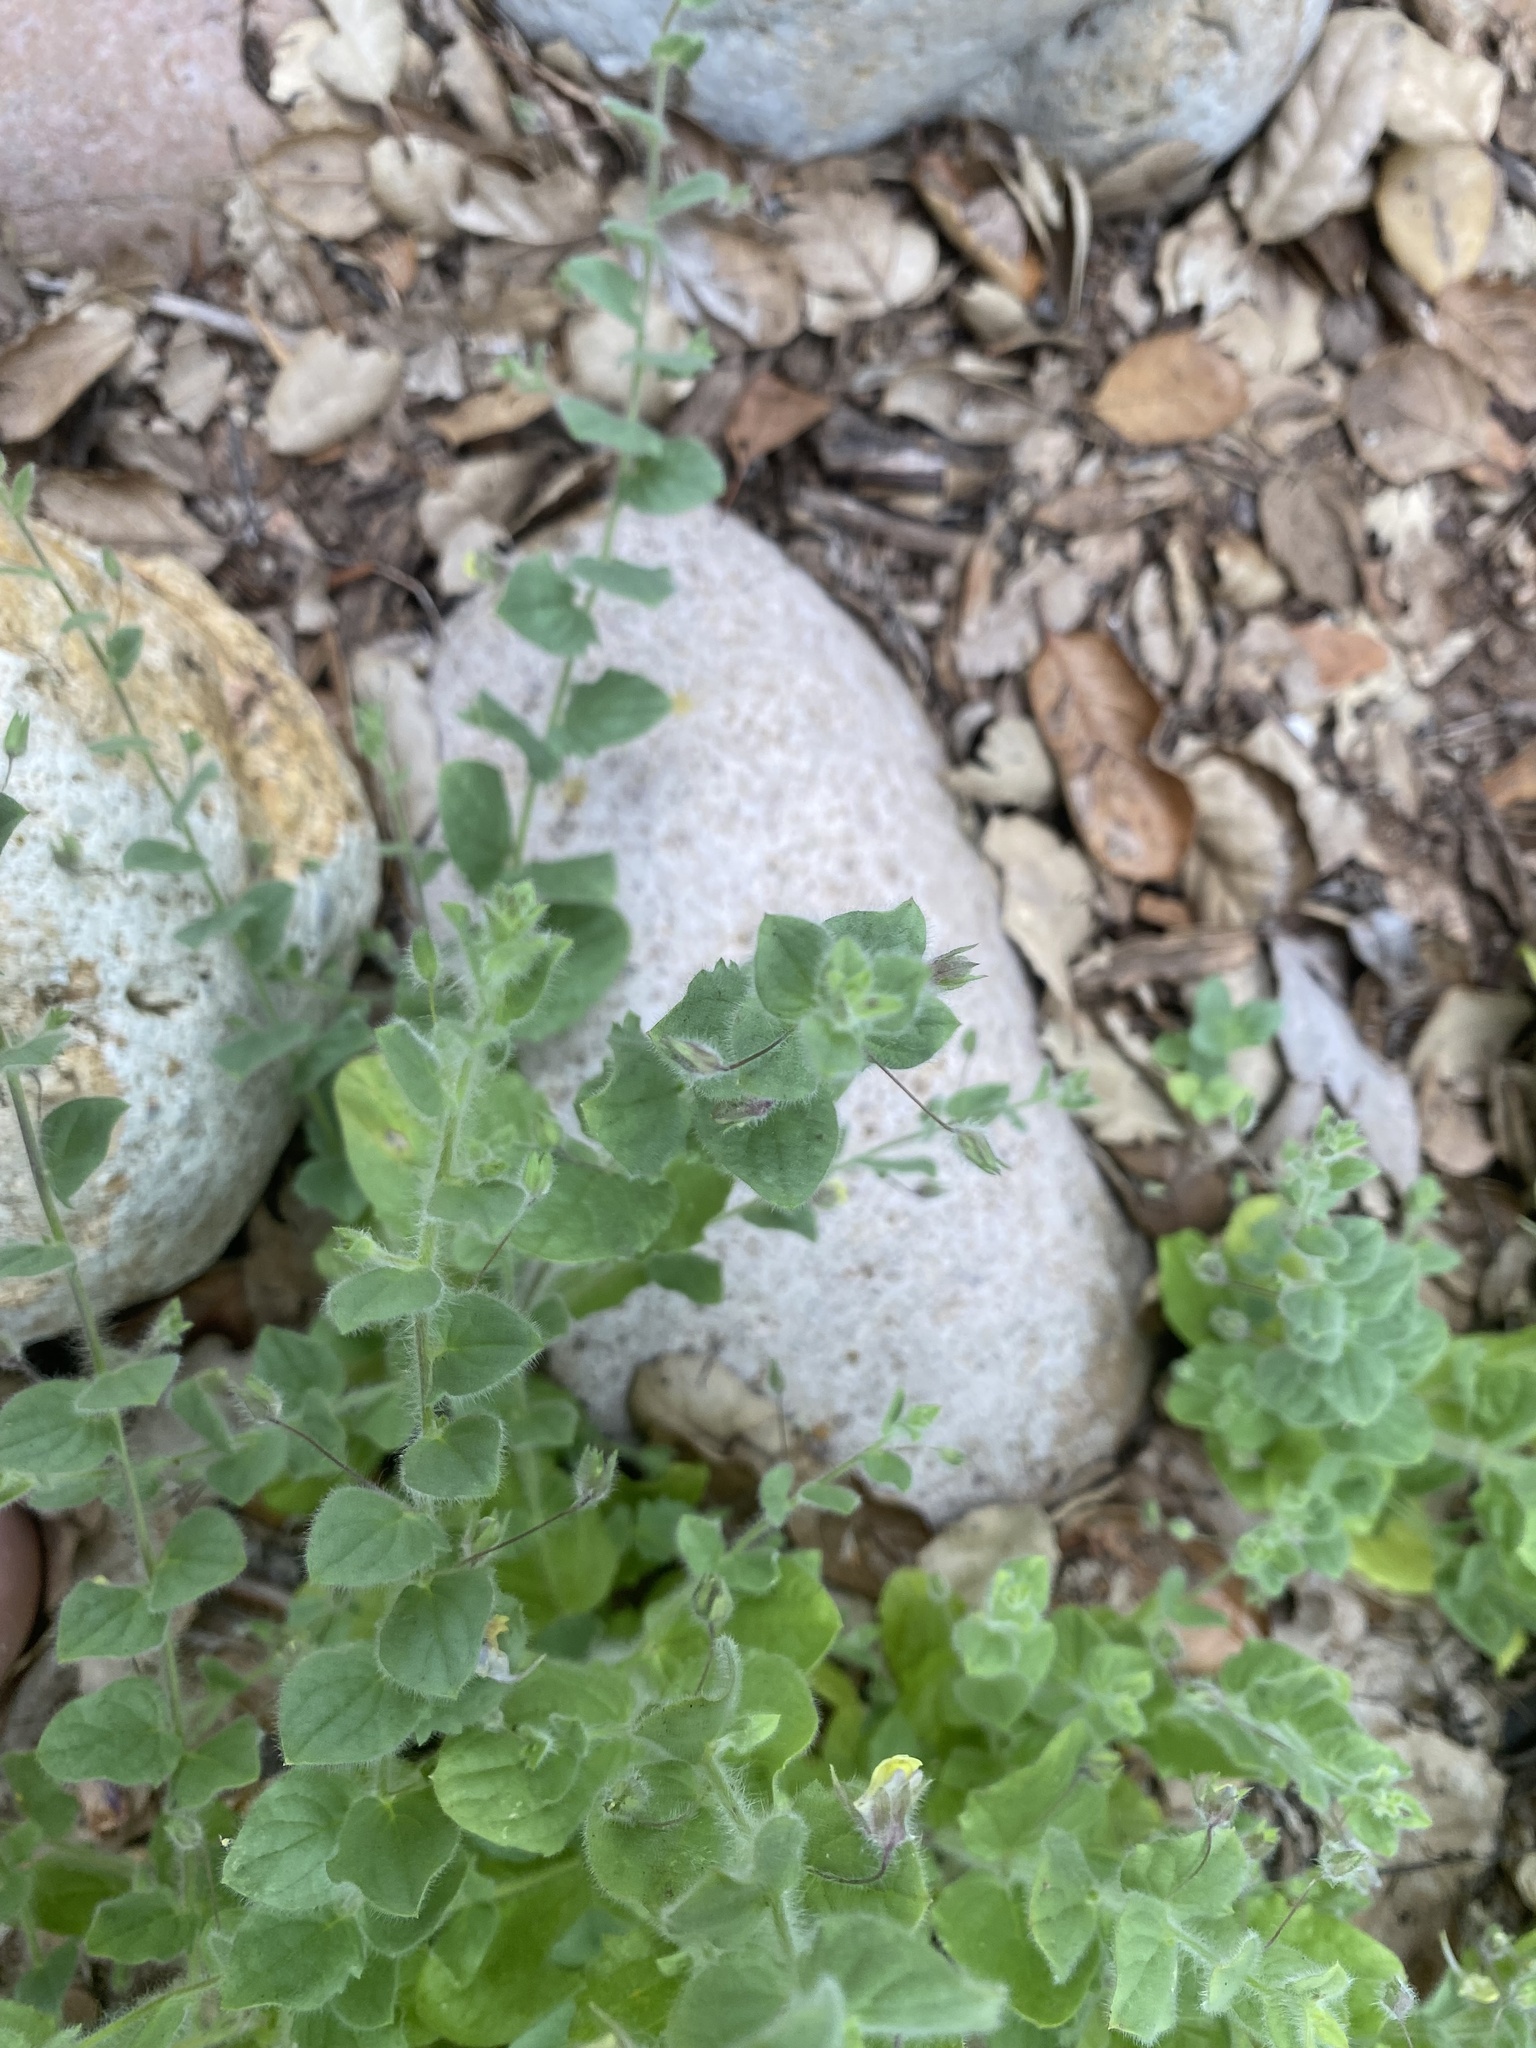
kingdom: Plantae
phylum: Tracheophyta
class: Magnoliopsida
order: Lamiales
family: Plantaginaceae
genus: Kickxia
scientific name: Kickxia elatine
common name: Sharp-leaved fluellen
